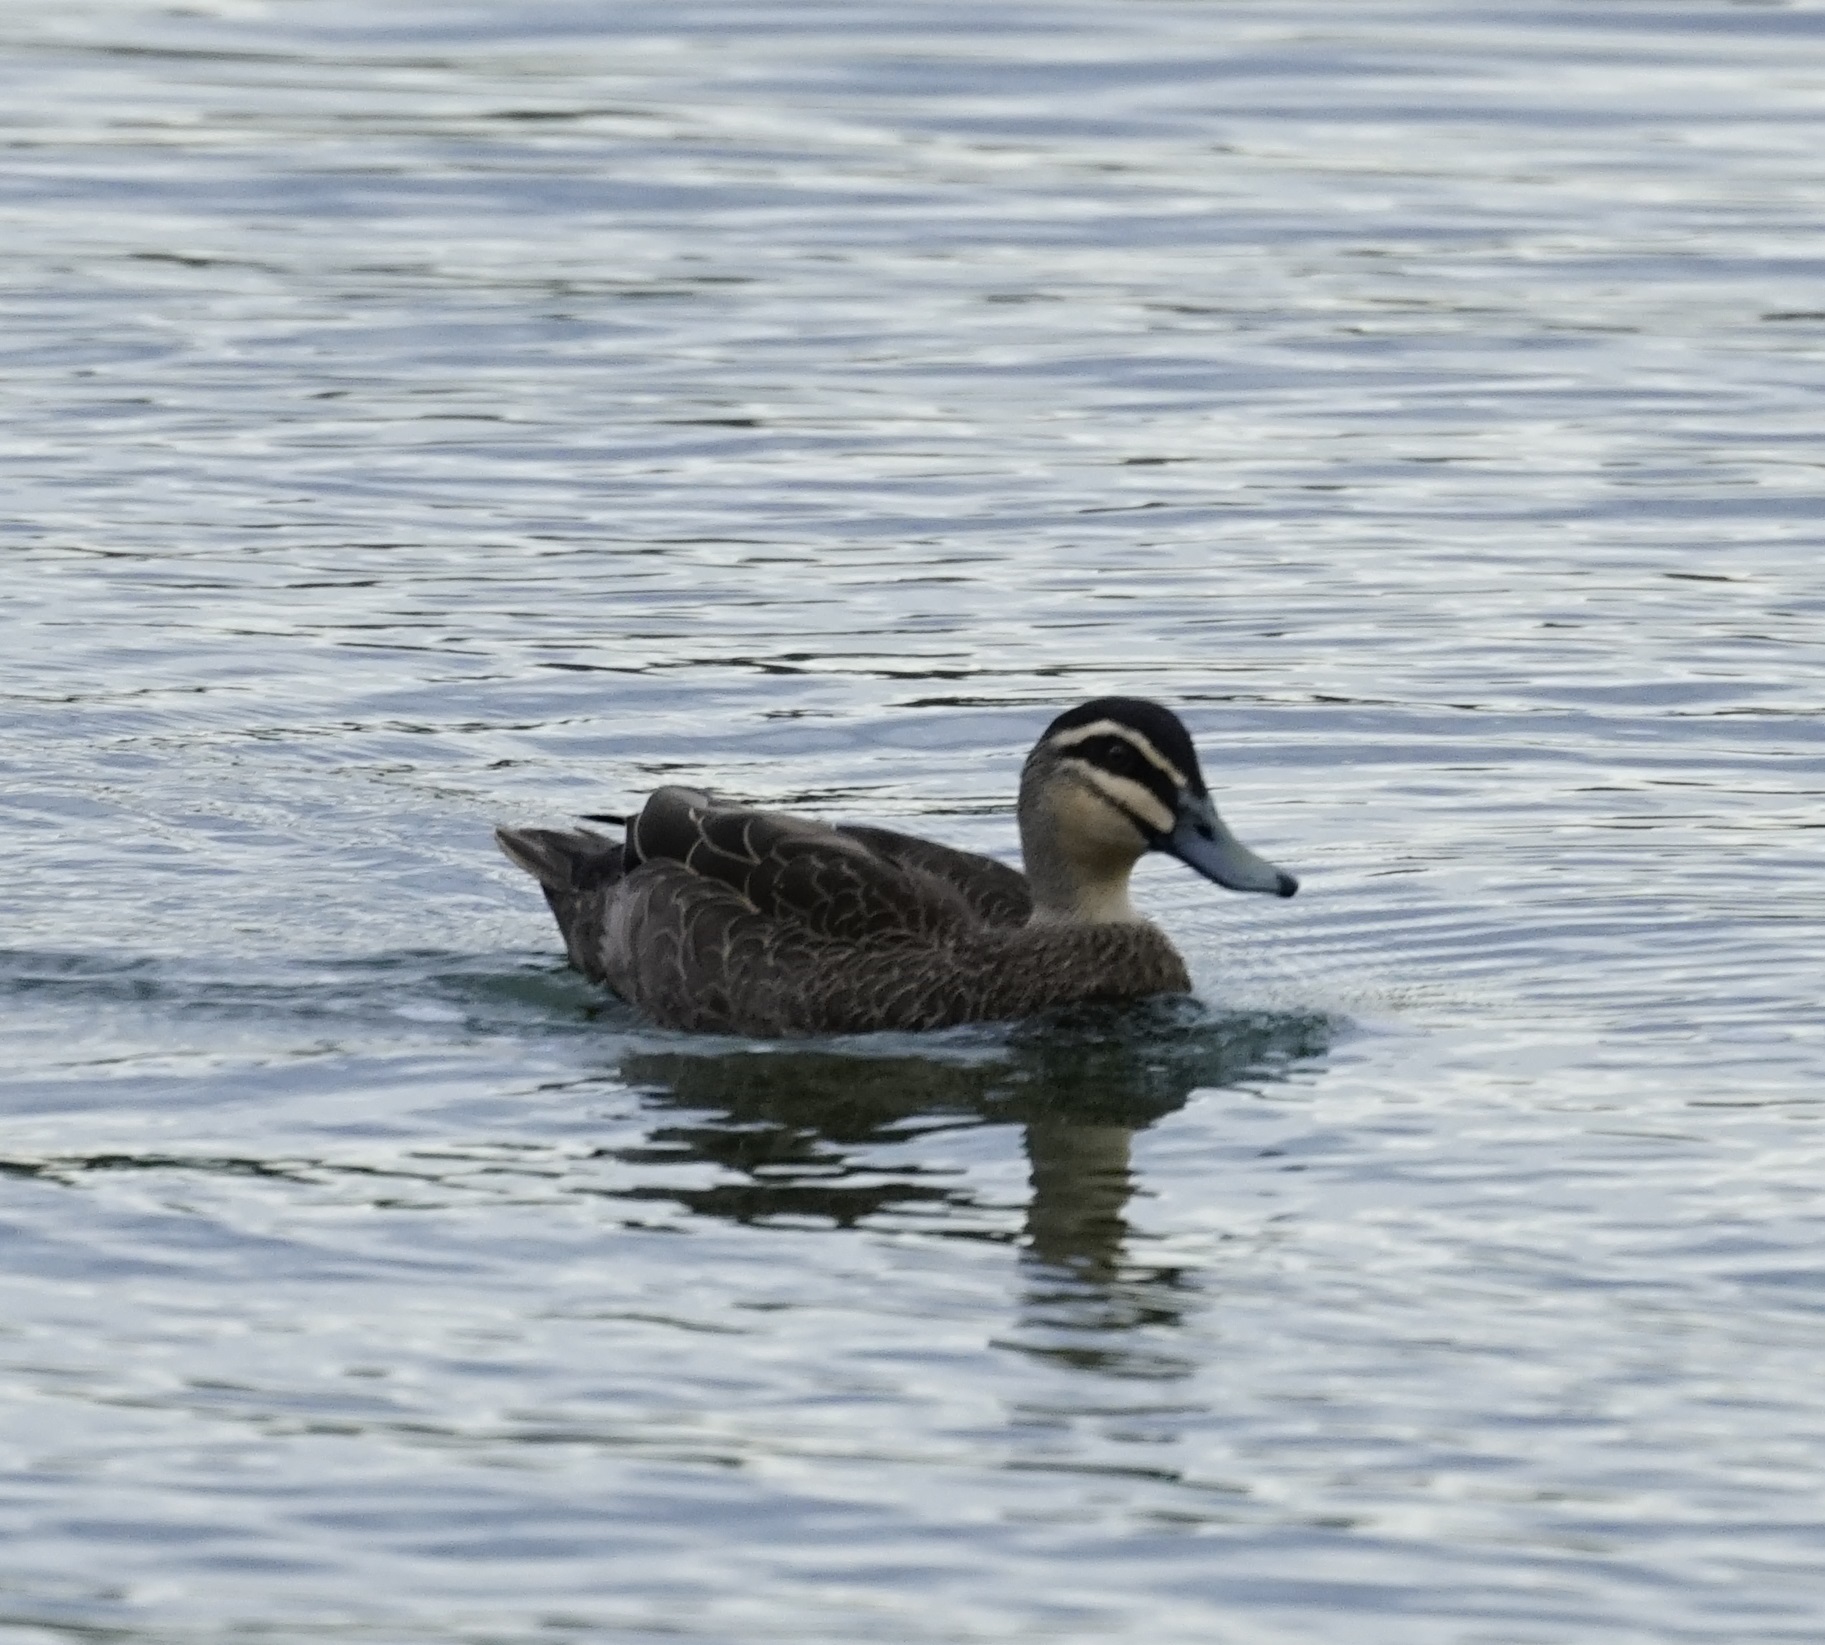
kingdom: Animalia
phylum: Chordata
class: Aves
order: Anseriformes
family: Anatidae
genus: Anas
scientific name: Anas superciliosa
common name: Pacific black duck
